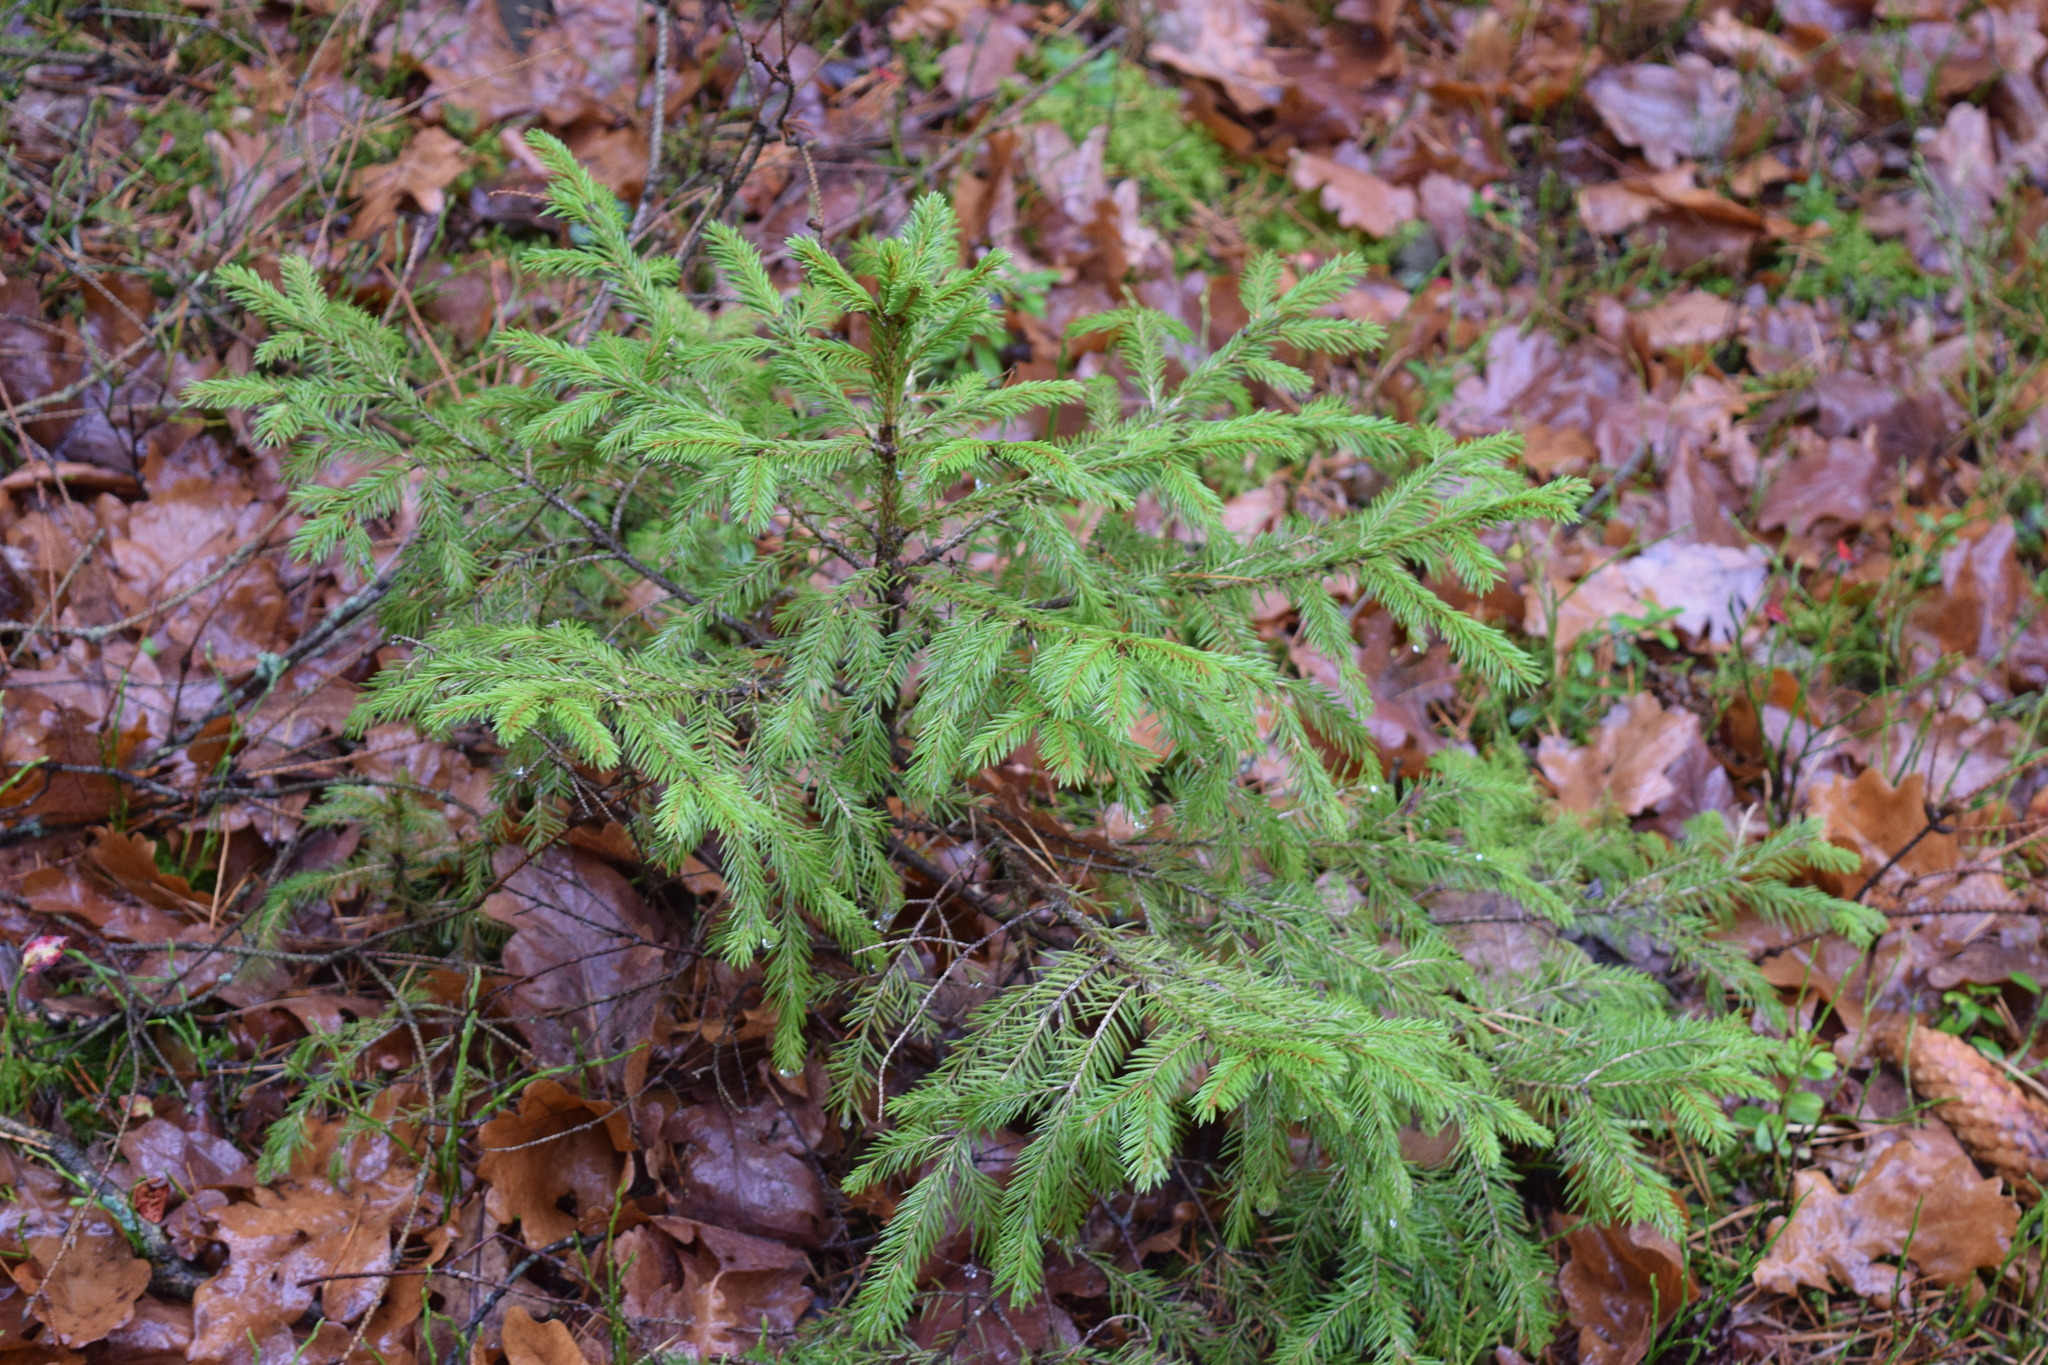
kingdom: Plantae
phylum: Tracheophyta
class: Pinopsida
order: Pinales
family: Pinaceae
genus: Picea
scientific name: Picea abies
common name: Norway spruce
